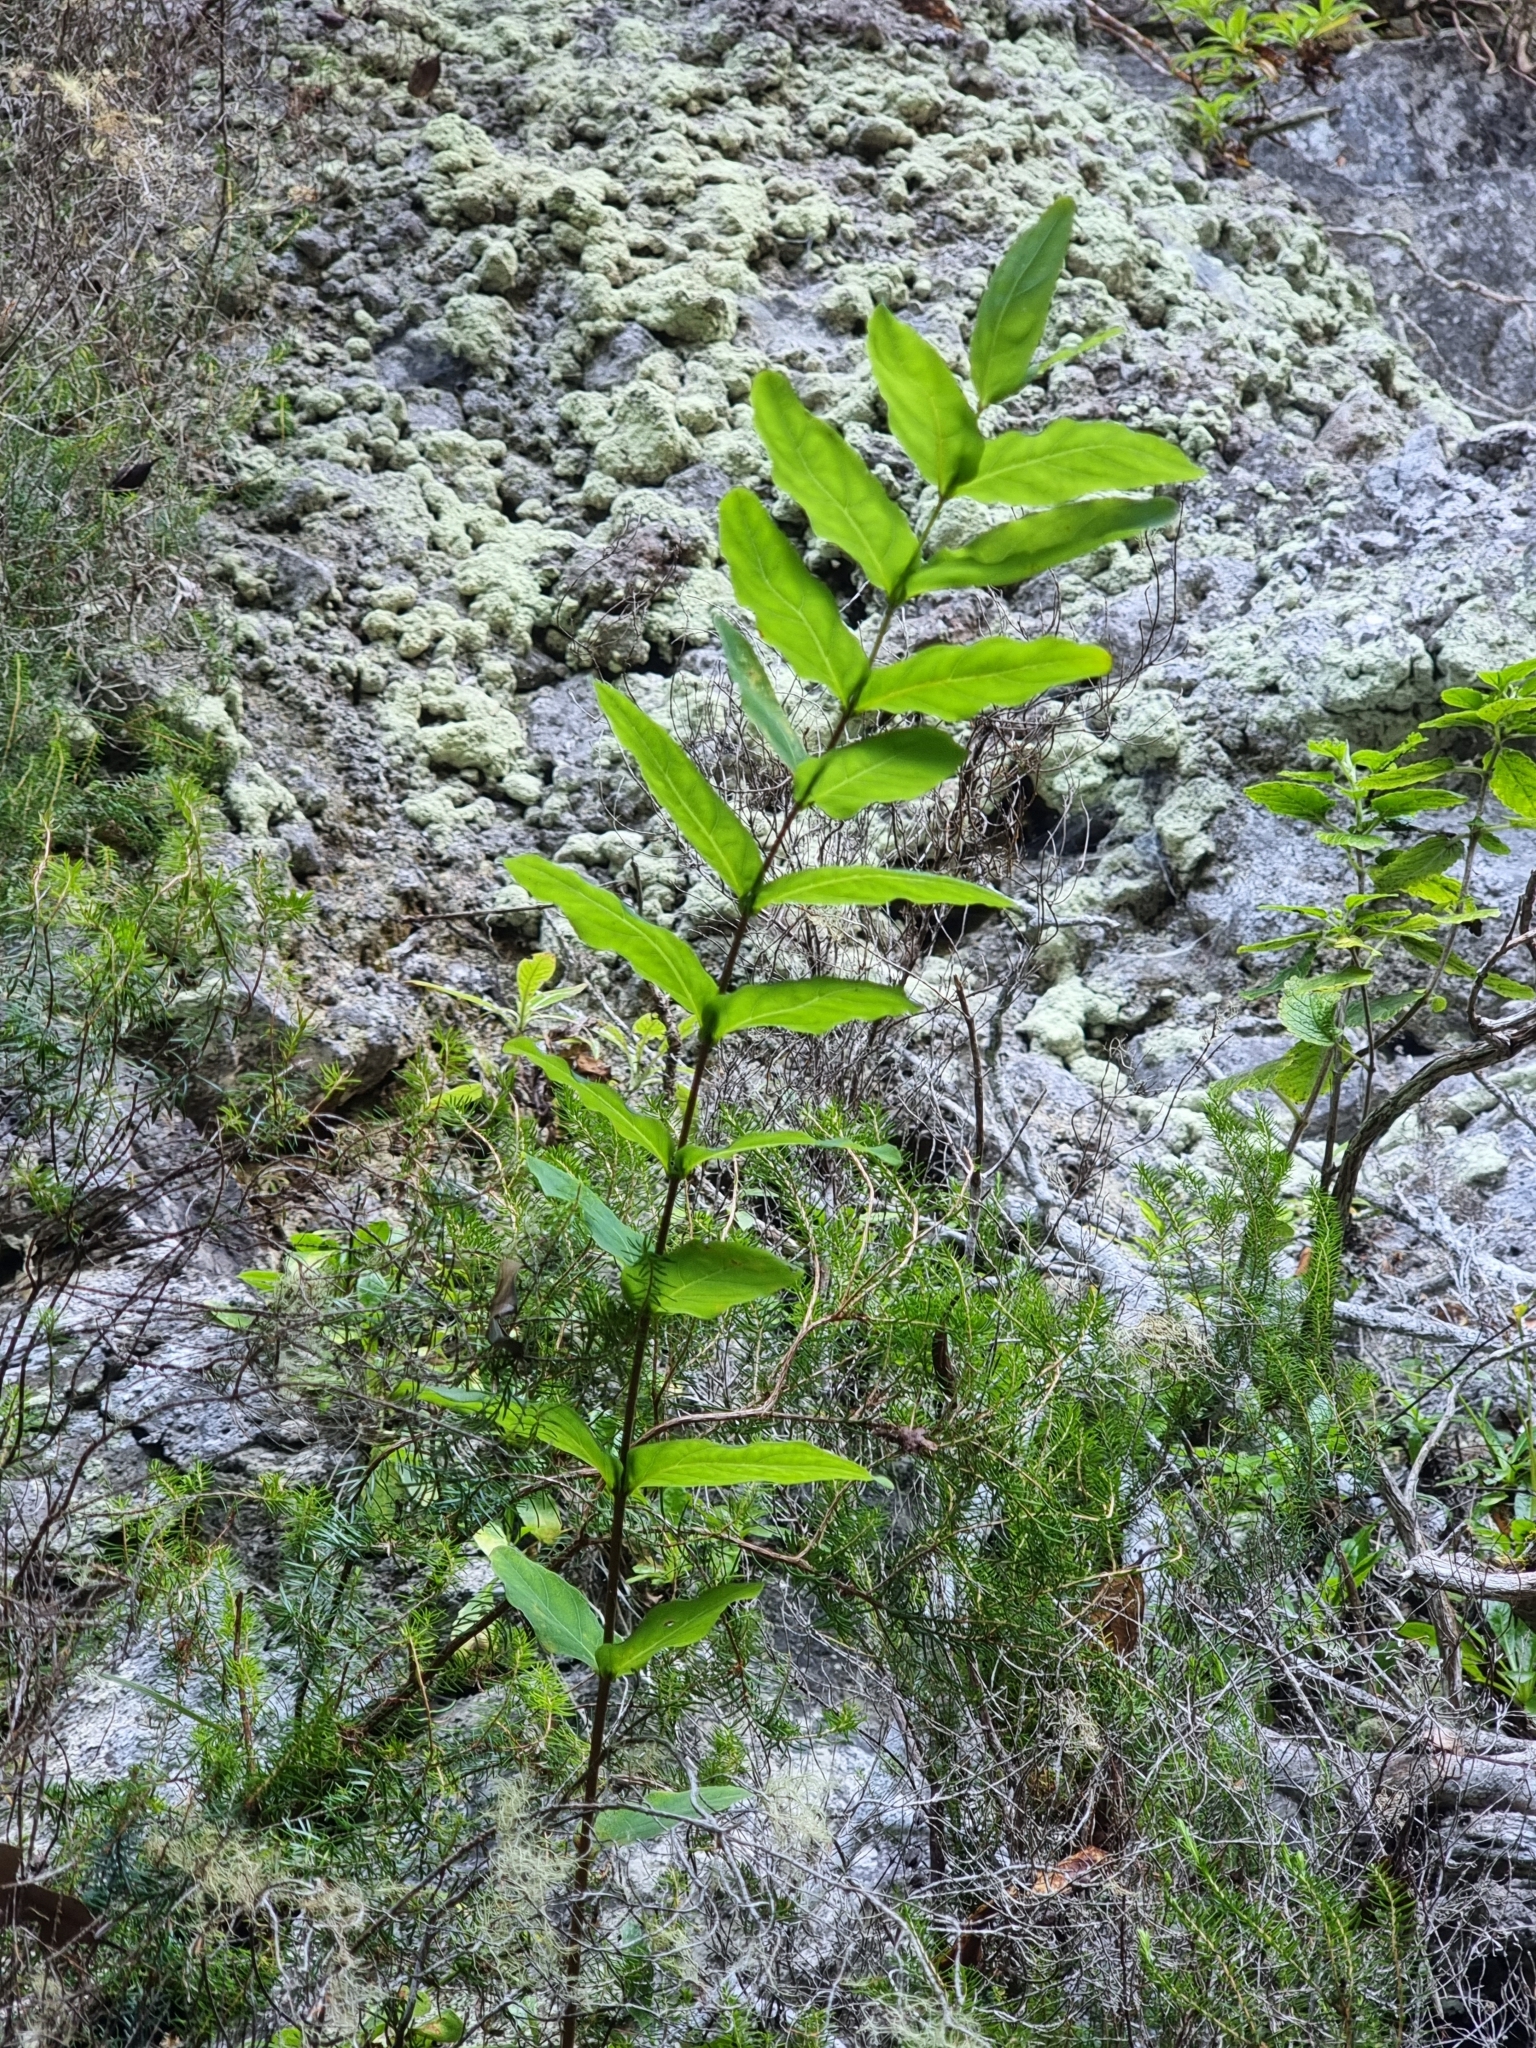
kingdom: Plantae
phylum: Tracheophyta
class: Magnoliopsida
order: Malpighiales
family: Hypericaceae
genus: Hypericum
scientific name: Hypericum grandifolium
